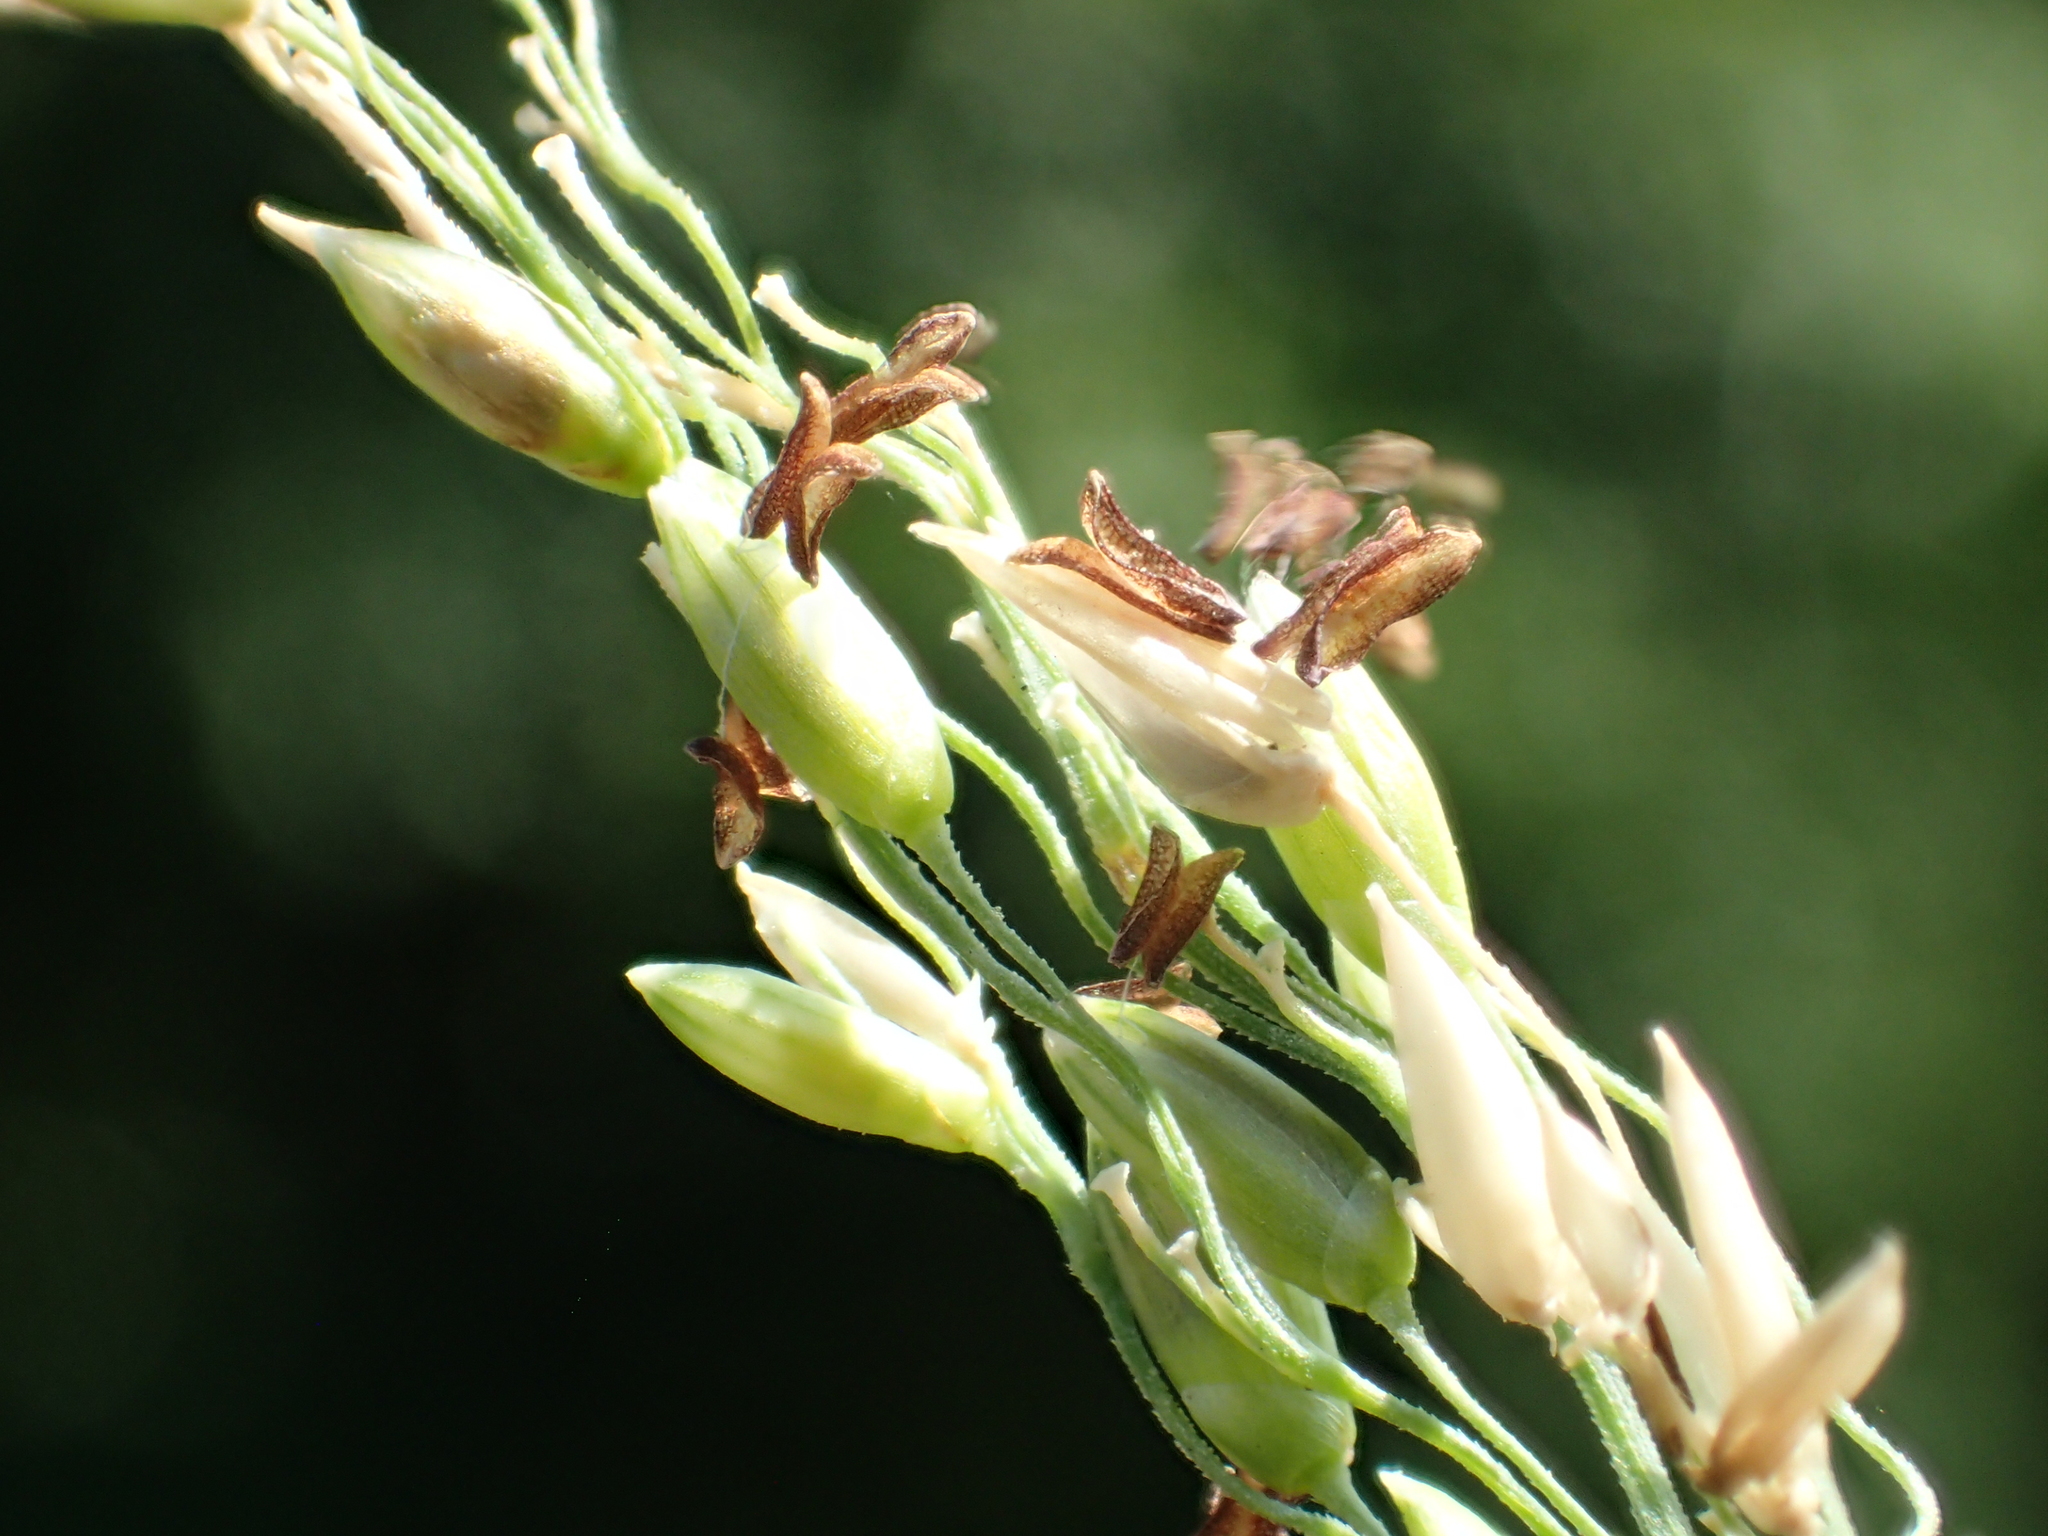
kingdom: Plantae
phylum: Tracheophyta
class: Liliopsida
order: Poales
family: Poaceae
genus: Megathyrsus
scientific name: Megathyrsus maximus
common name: Guineagrass
